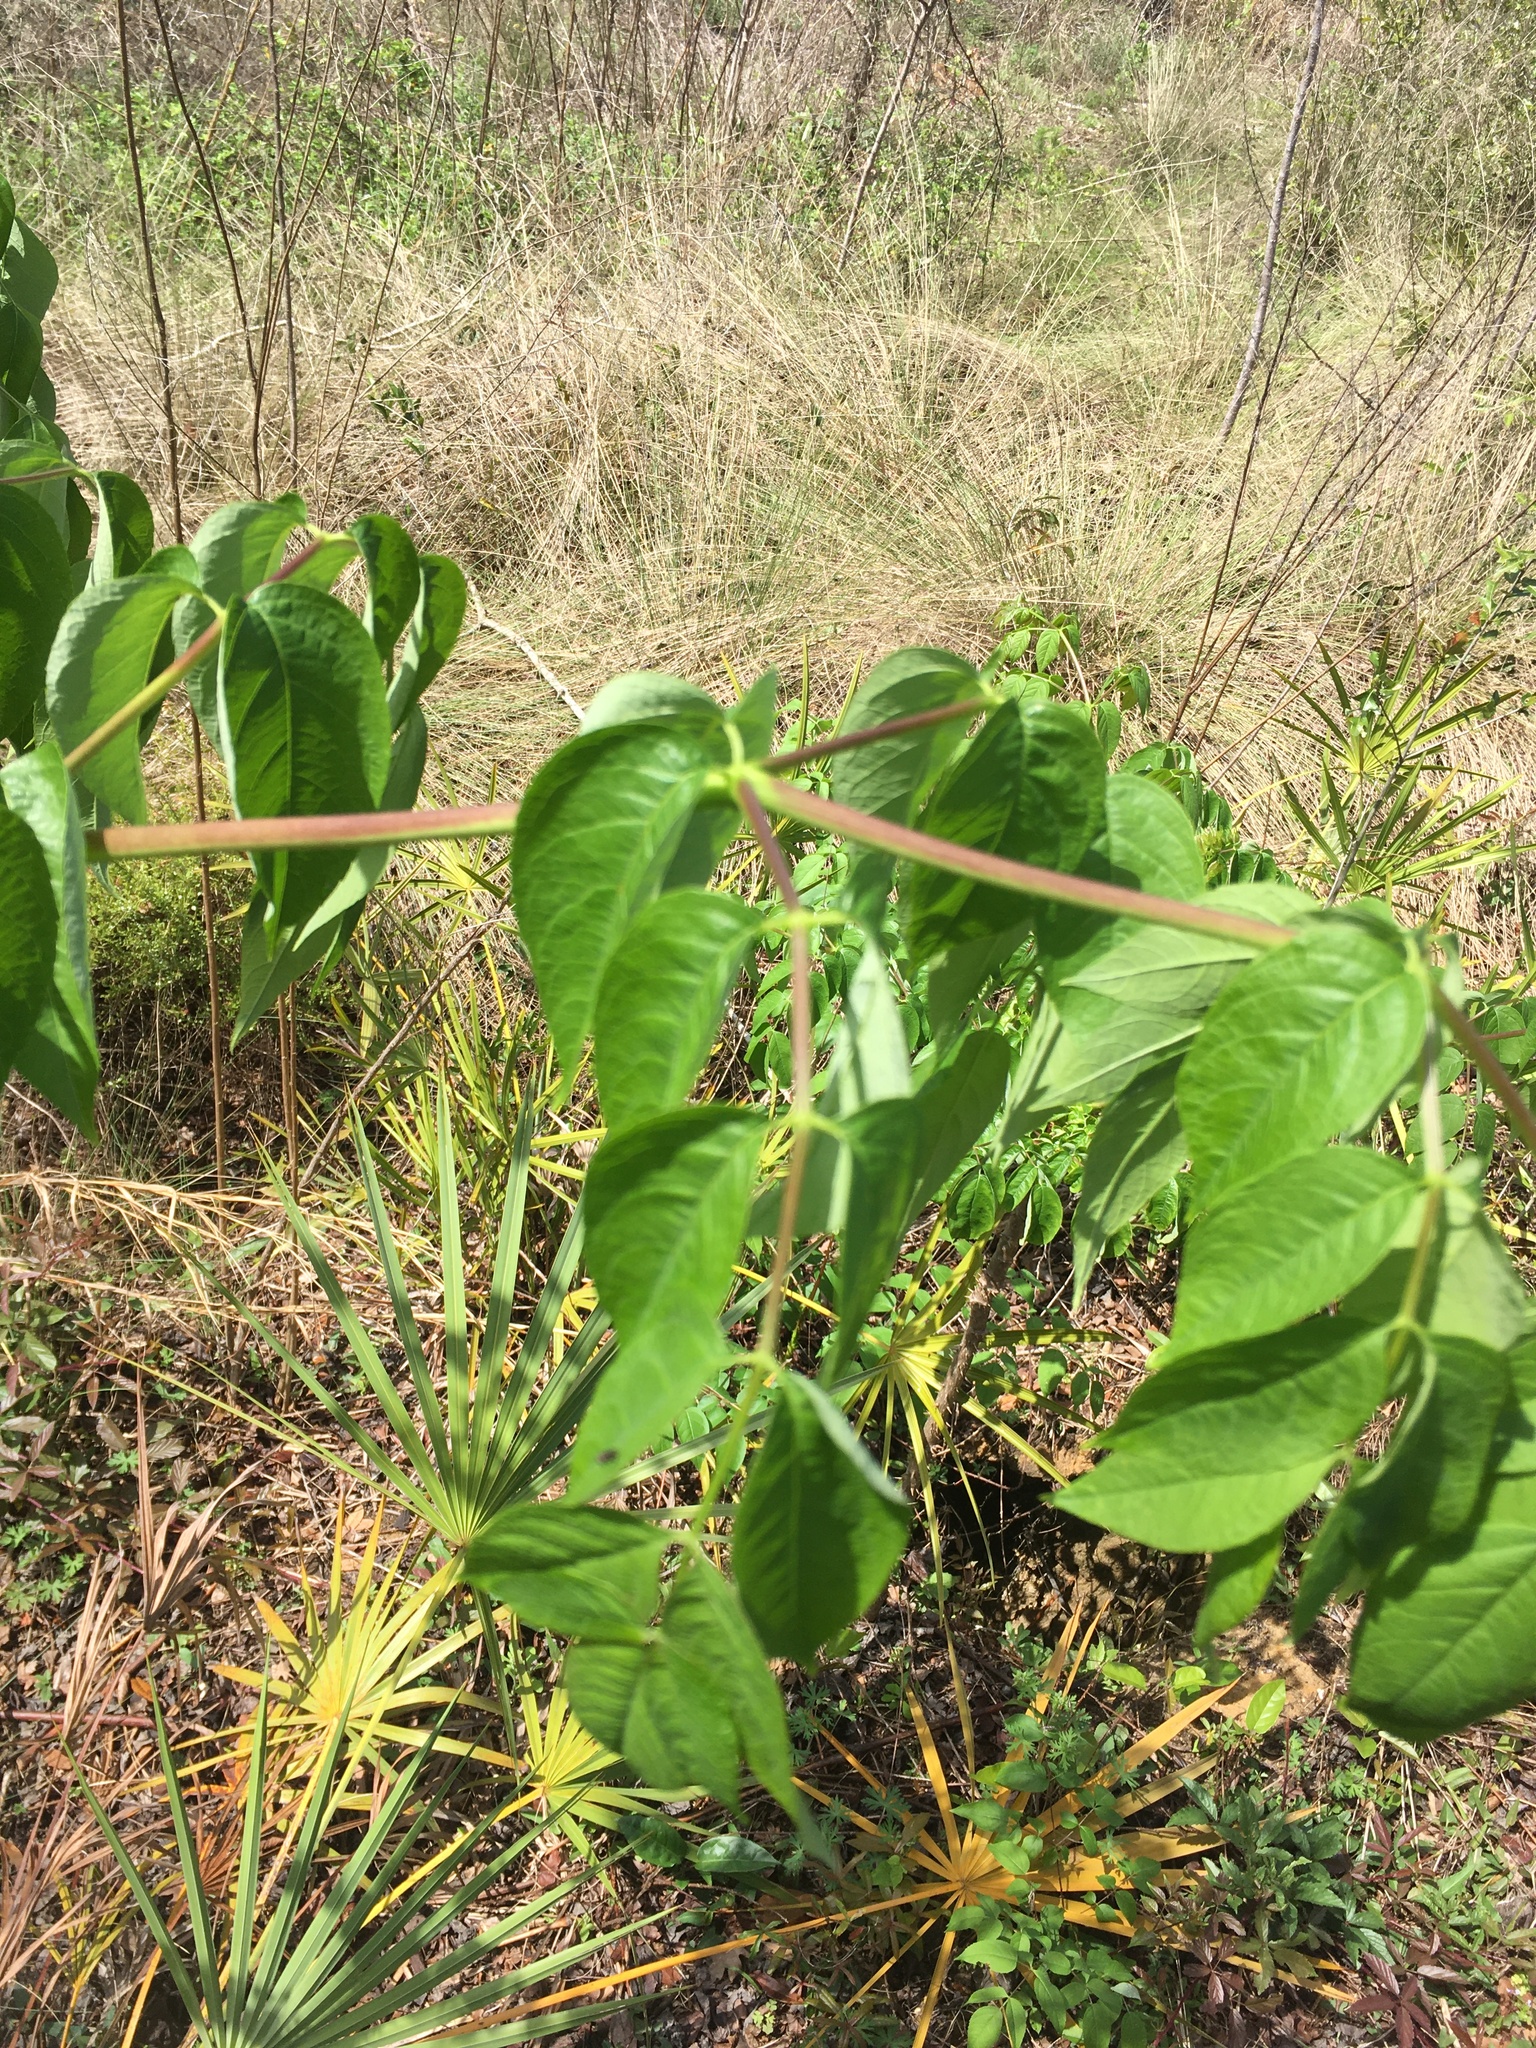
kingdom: Plantae
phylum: Tracheophyta
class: Magnoliopsida
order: Apiales
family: Araliaceae
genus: Aralia
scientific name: Aralia spinosa
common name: Hercules'-club
